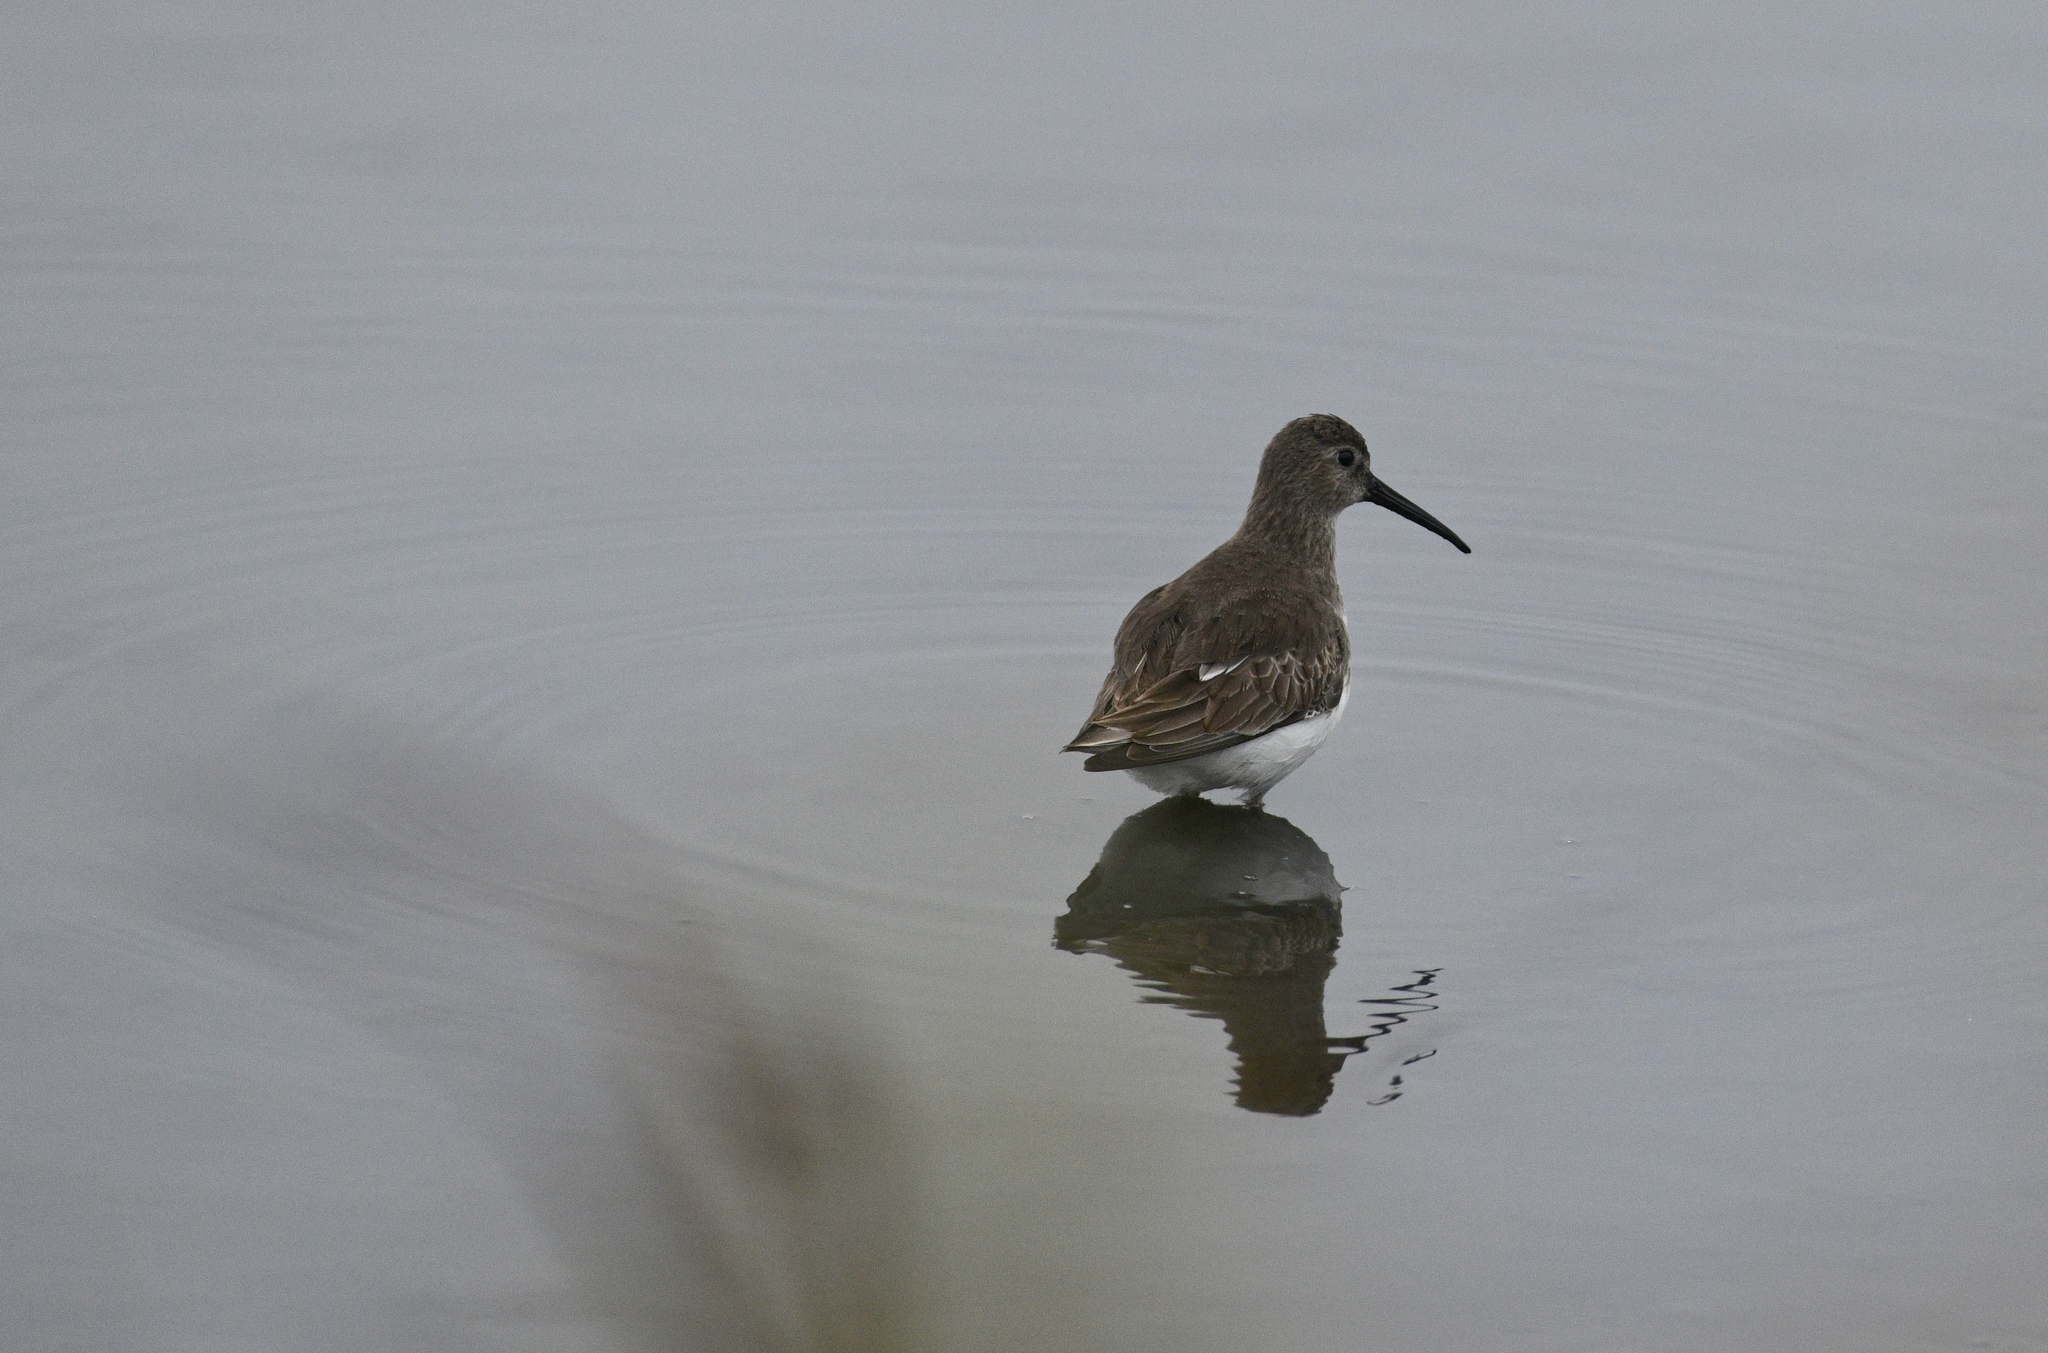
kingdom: Animalia
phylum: Chordata
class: Aves
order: Charadriiformes
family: Scolopacidae
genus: Calidris
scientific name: Calidris alpina
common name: Dunlin
